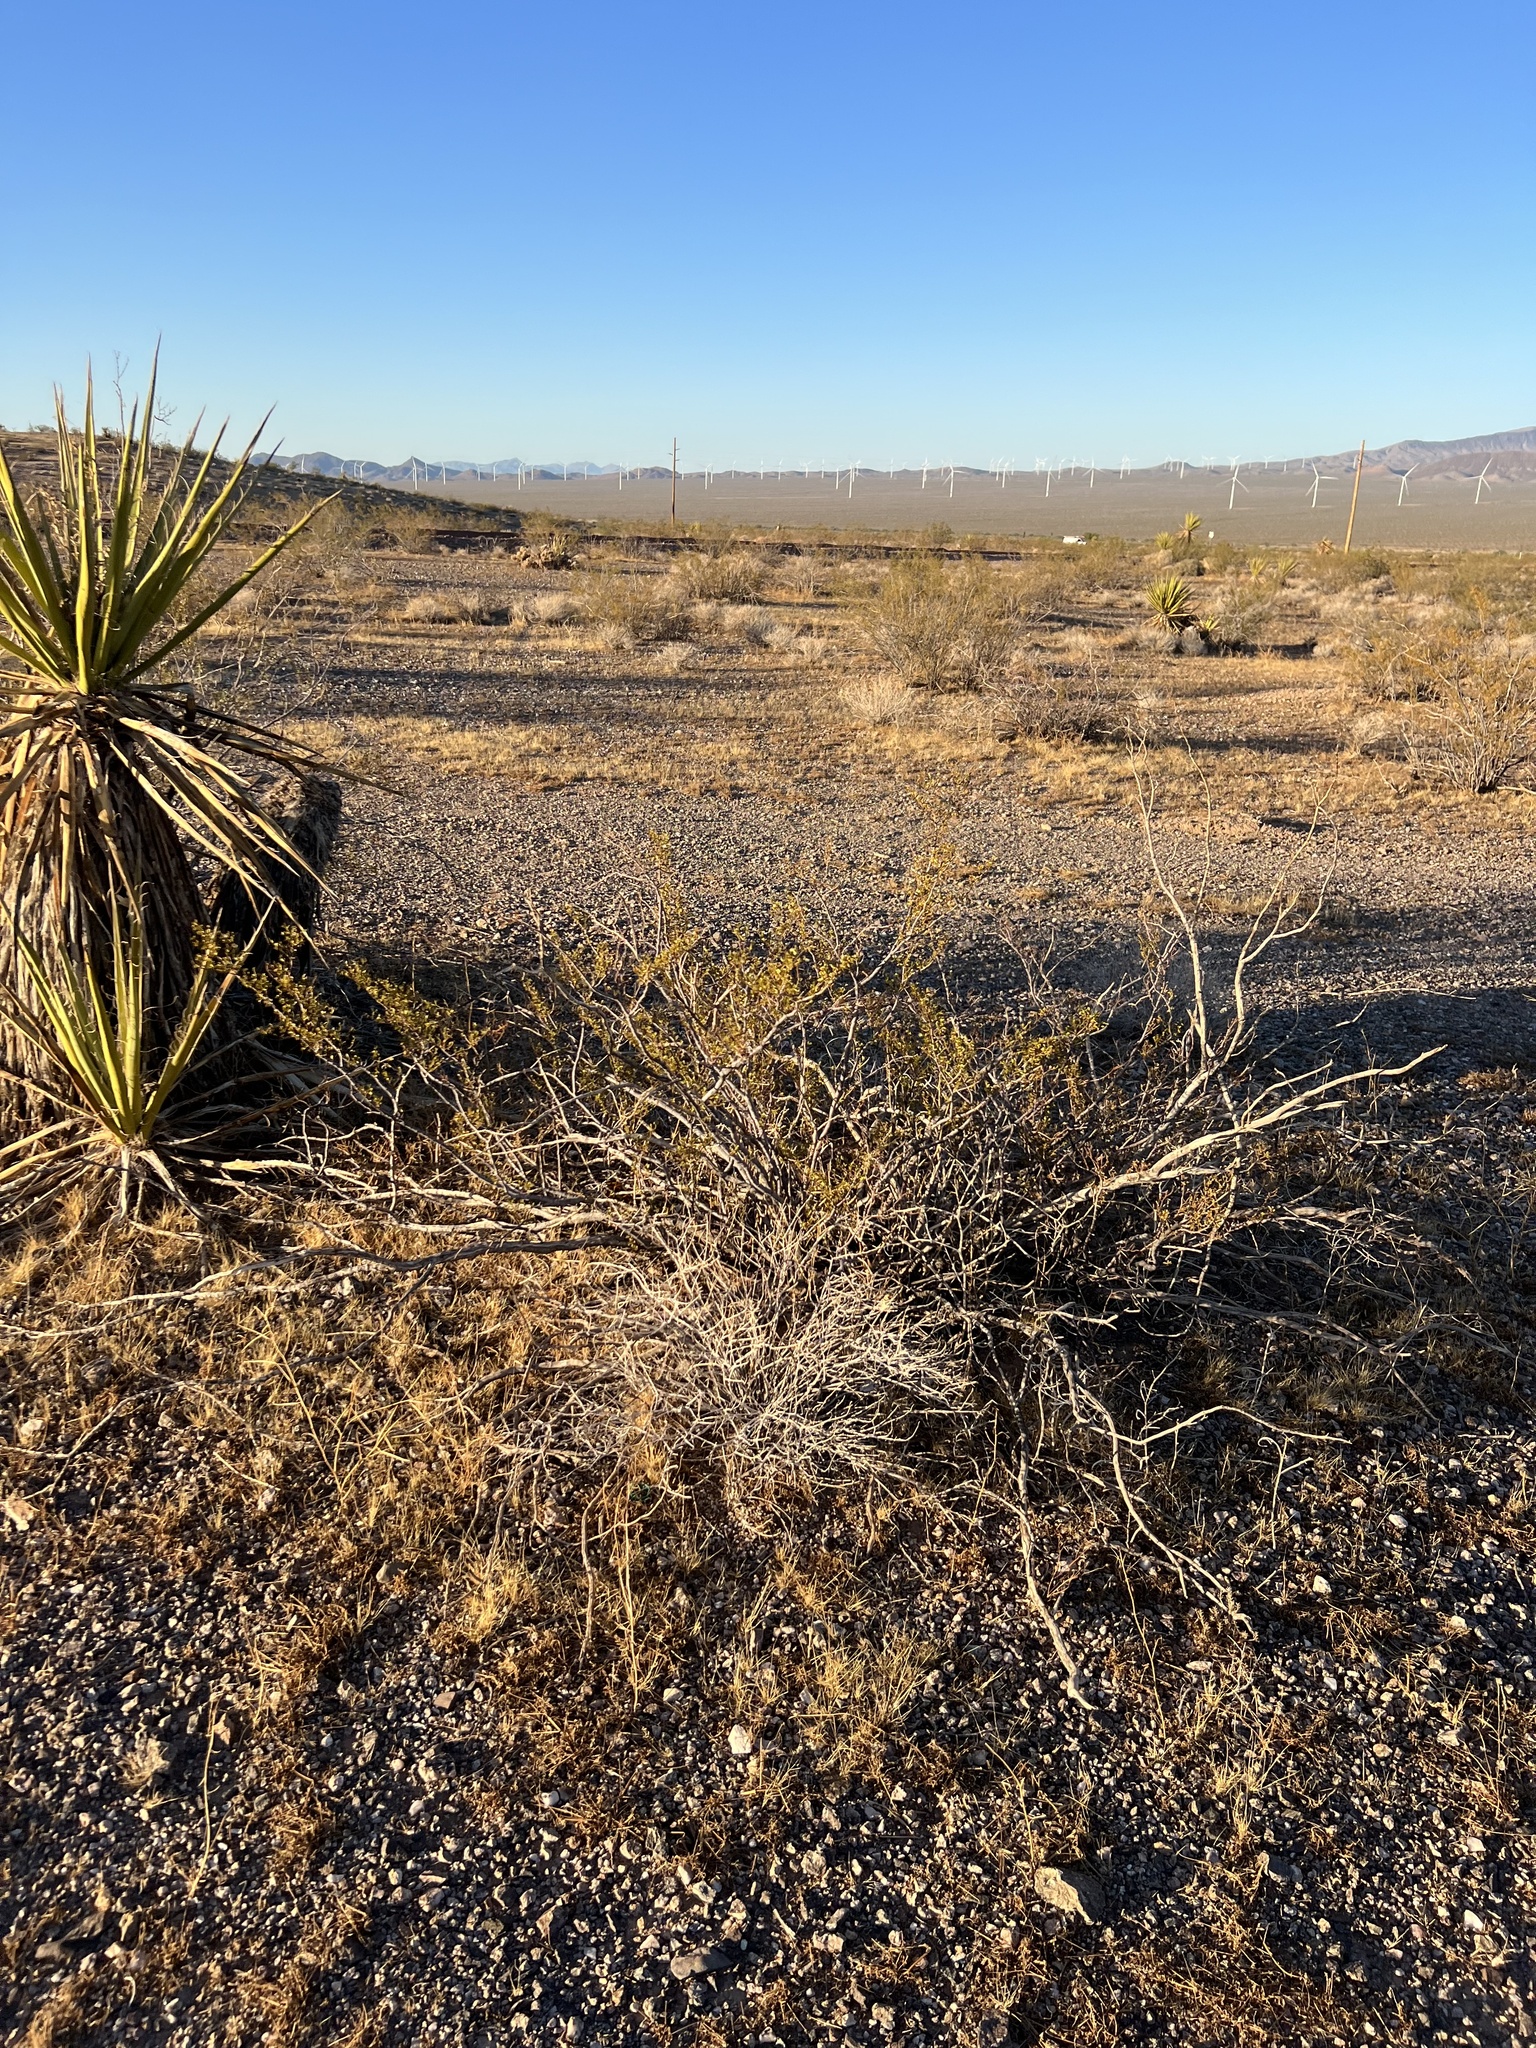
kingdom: Plantae
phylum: Tracheophyta
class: Magnoliopsida
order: Zygophyllales
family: Zygophyllaceae
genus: Larrea
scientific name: Larrea tridentata
